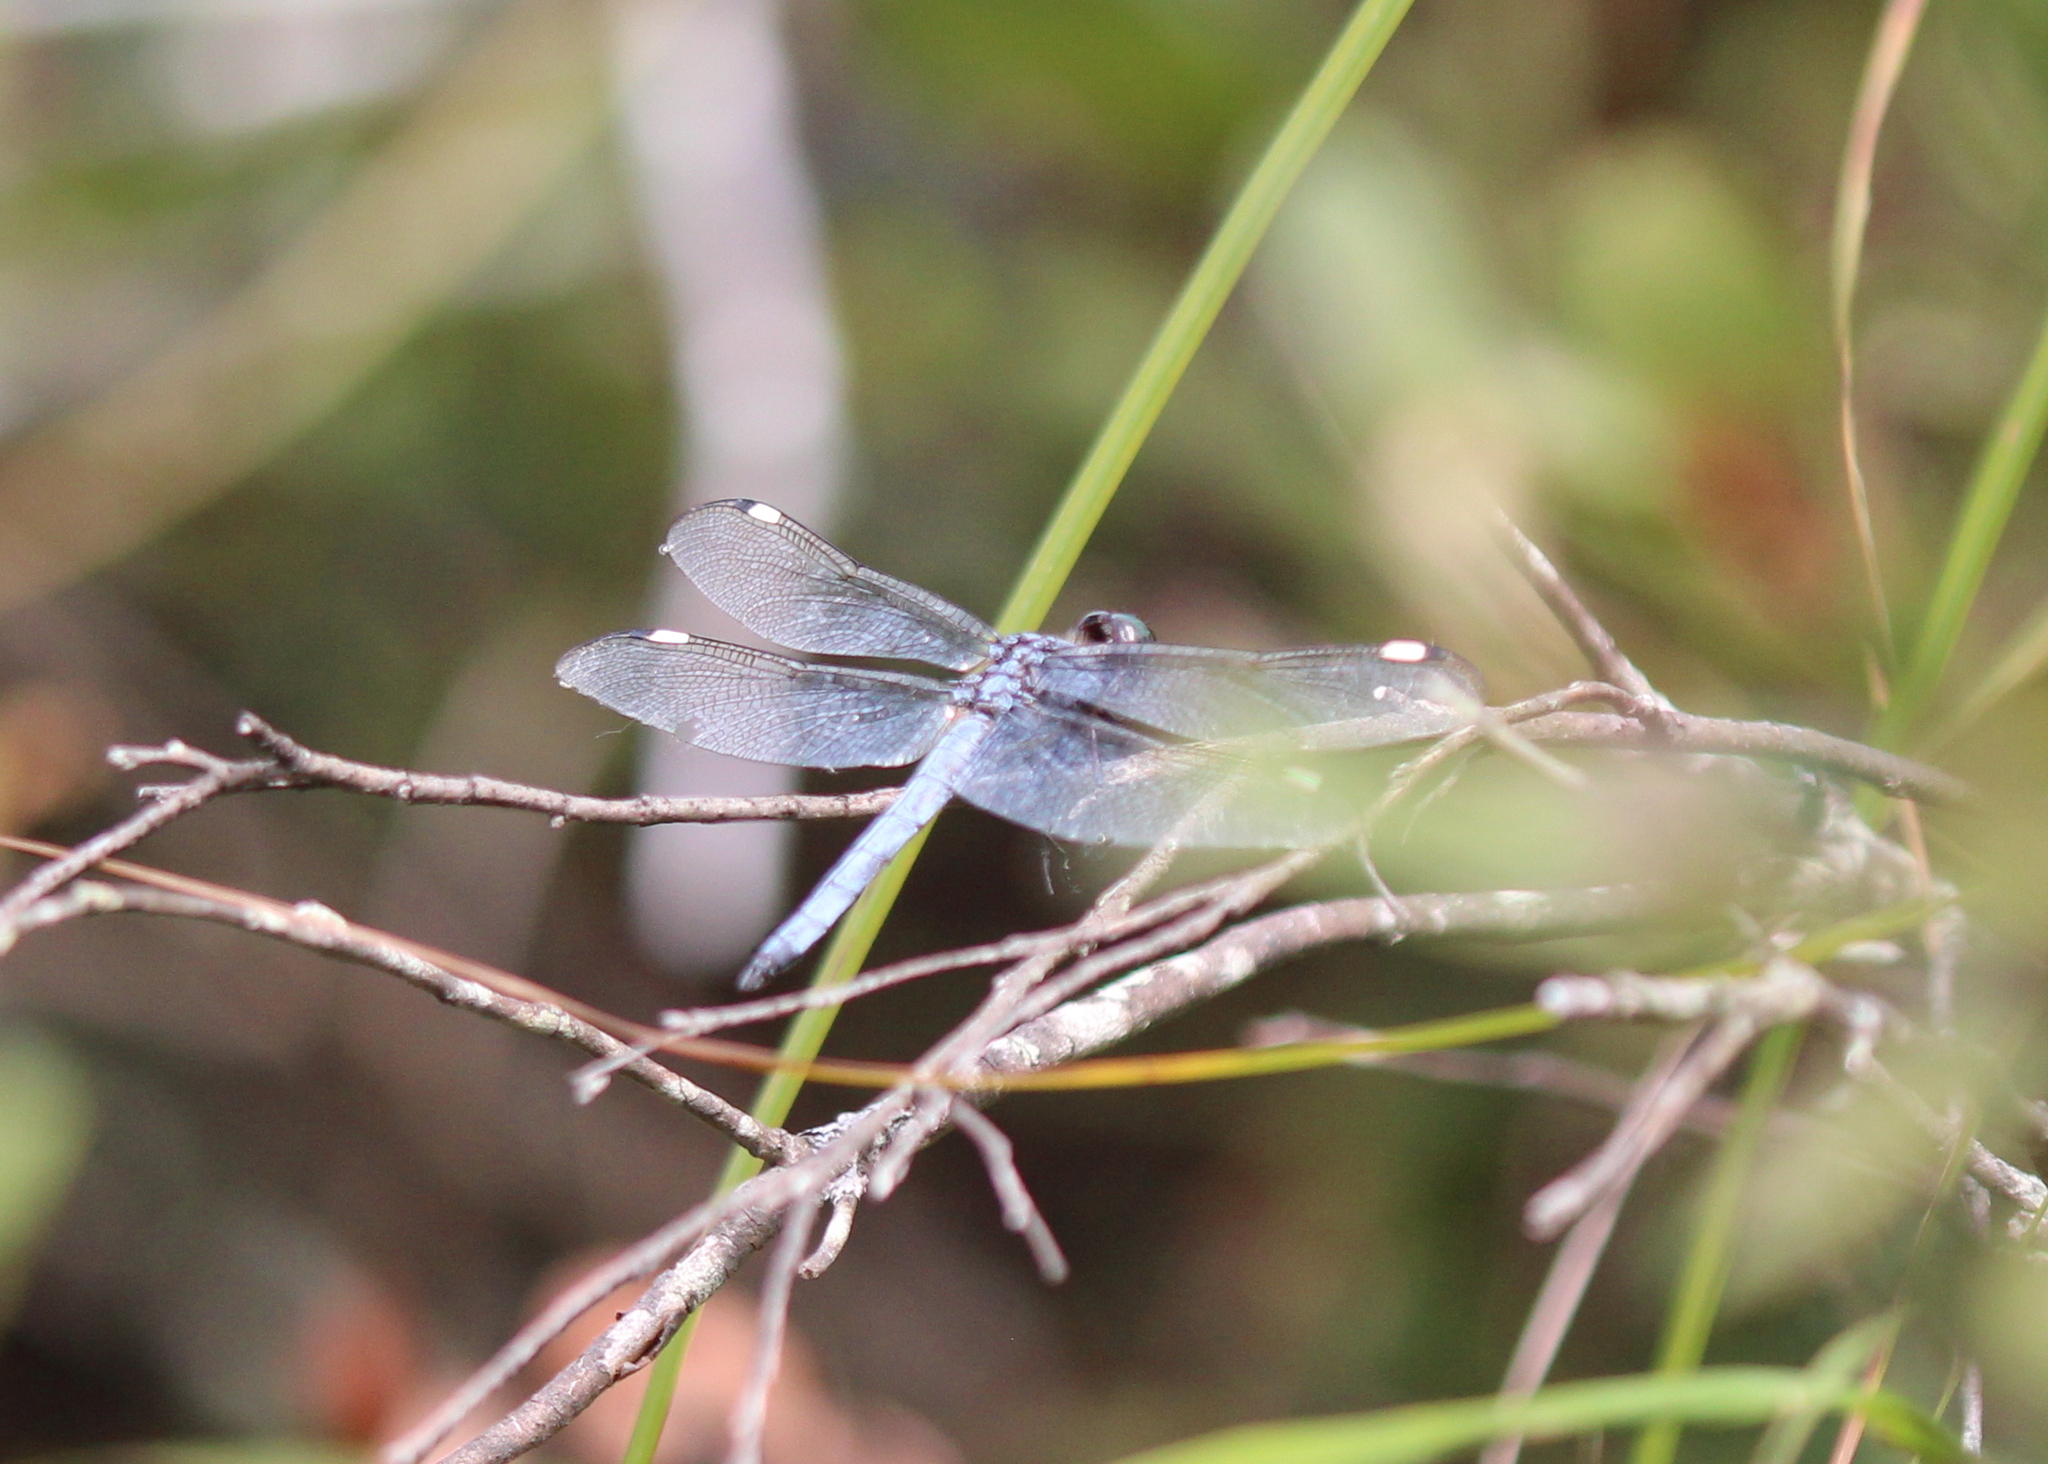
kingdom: Animalia
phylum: Arthropoda
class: Insecta
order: Odonata
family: Libellulidae
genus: Libellula
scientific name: Libellula cyanea
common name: Spangled skimmer
